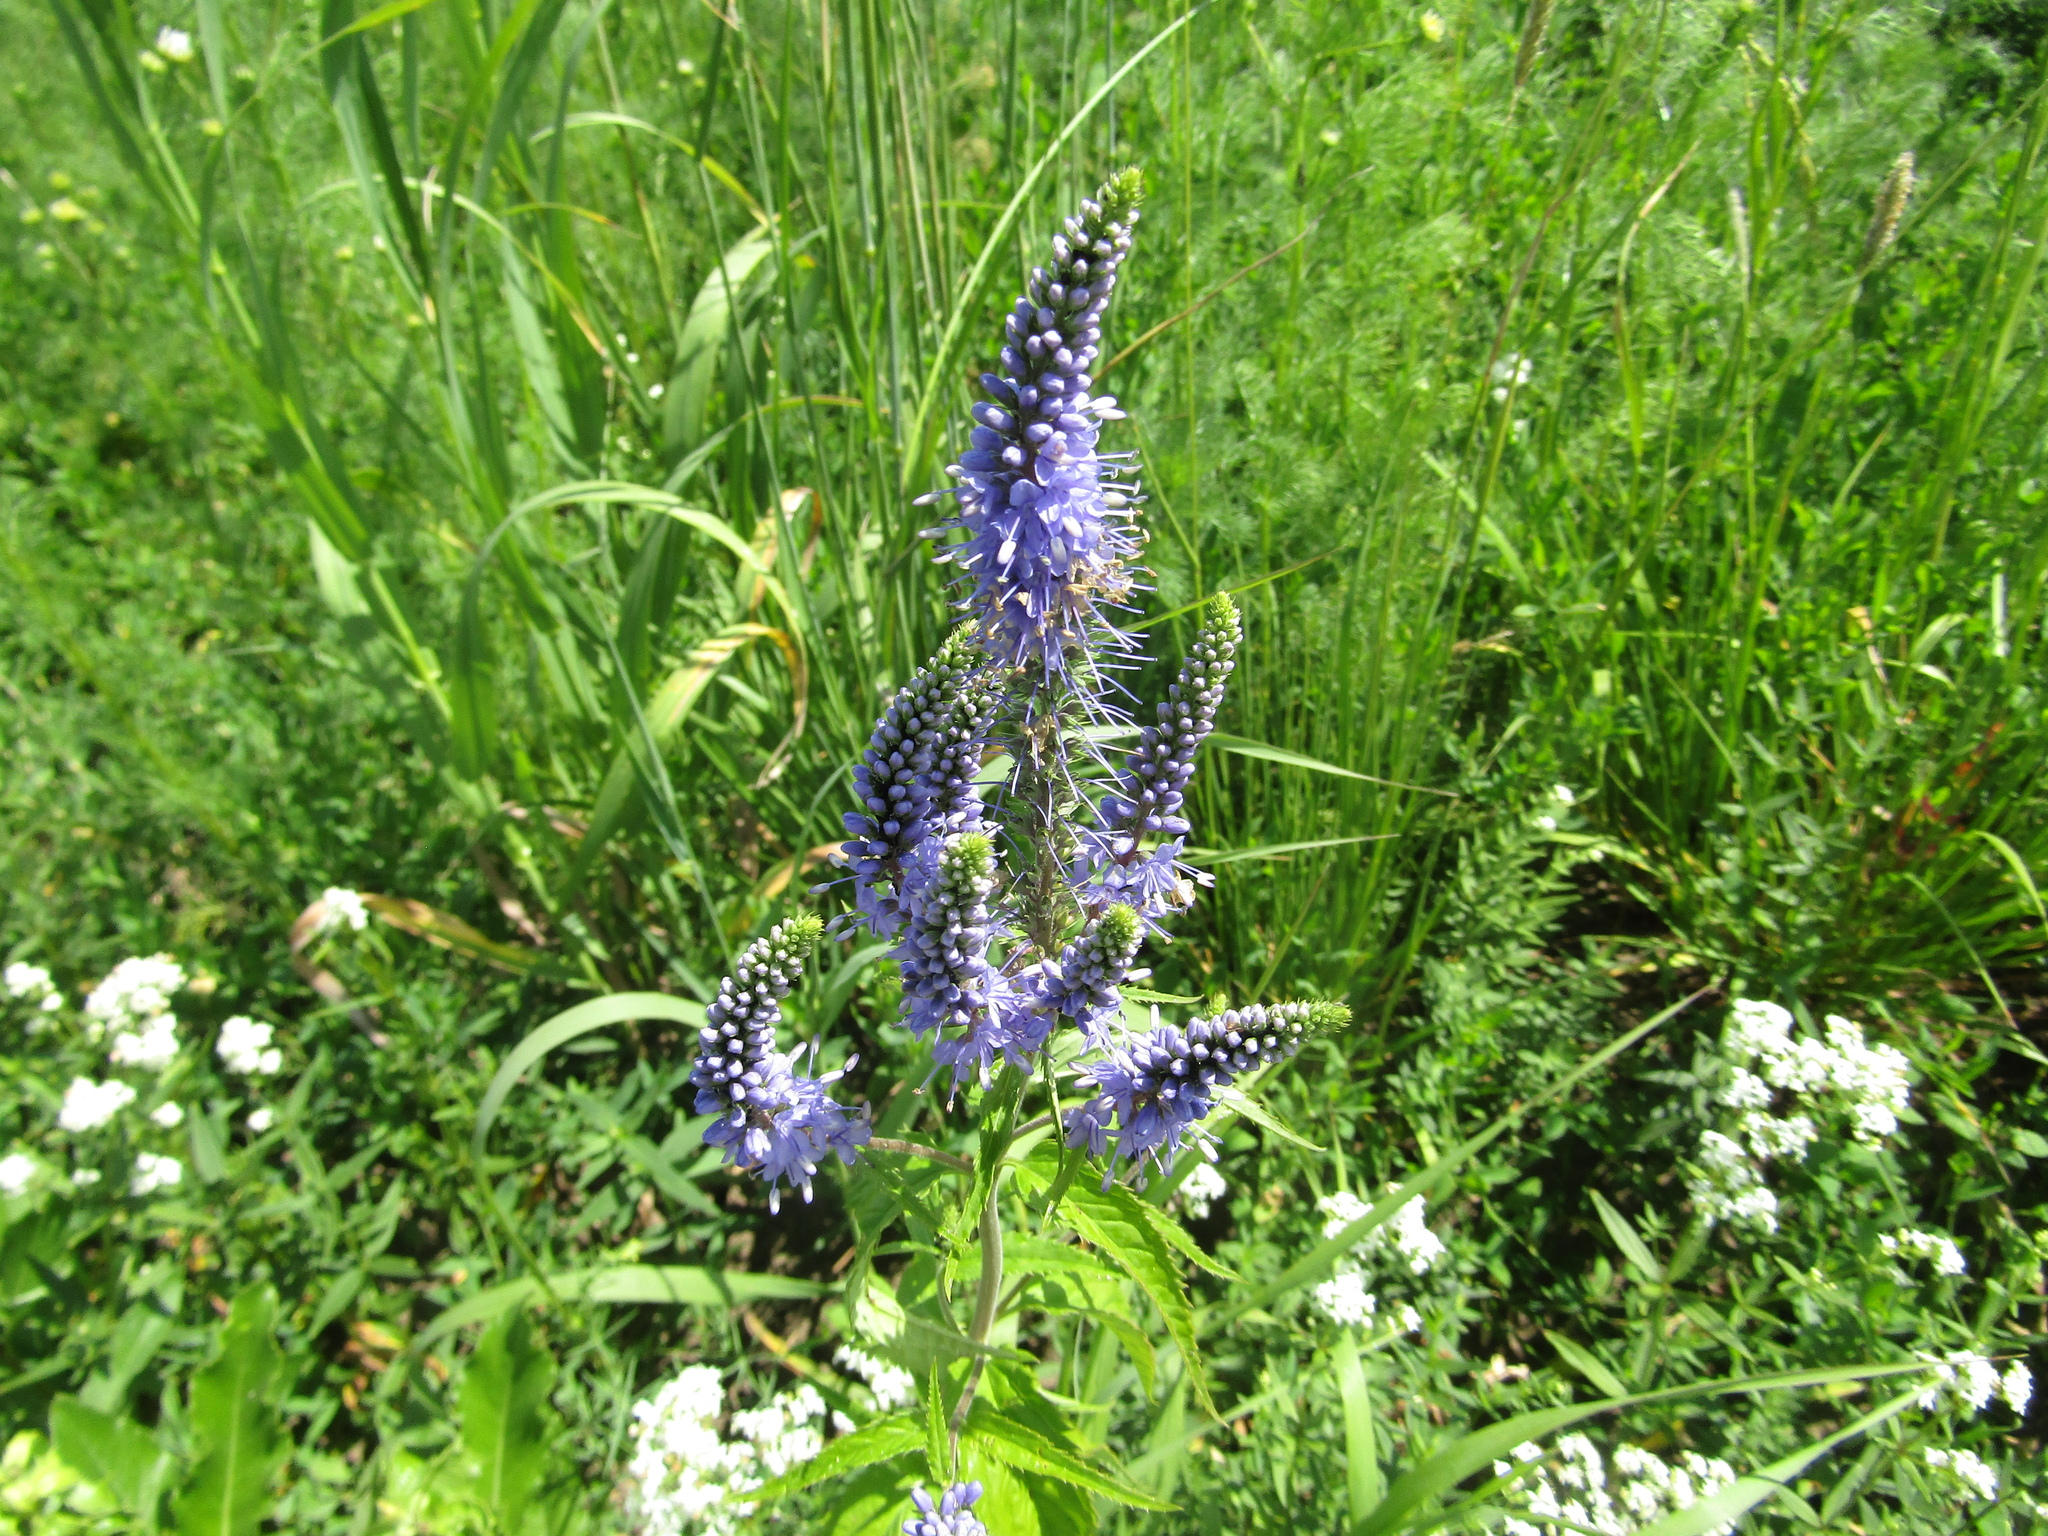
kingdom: Plantae
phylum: Tracheophyta
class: Magnoliopsida
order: Lamiales
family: Plantaginaceae
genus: Veronica
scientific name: Veronica longifolia
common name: Garden speedwell
